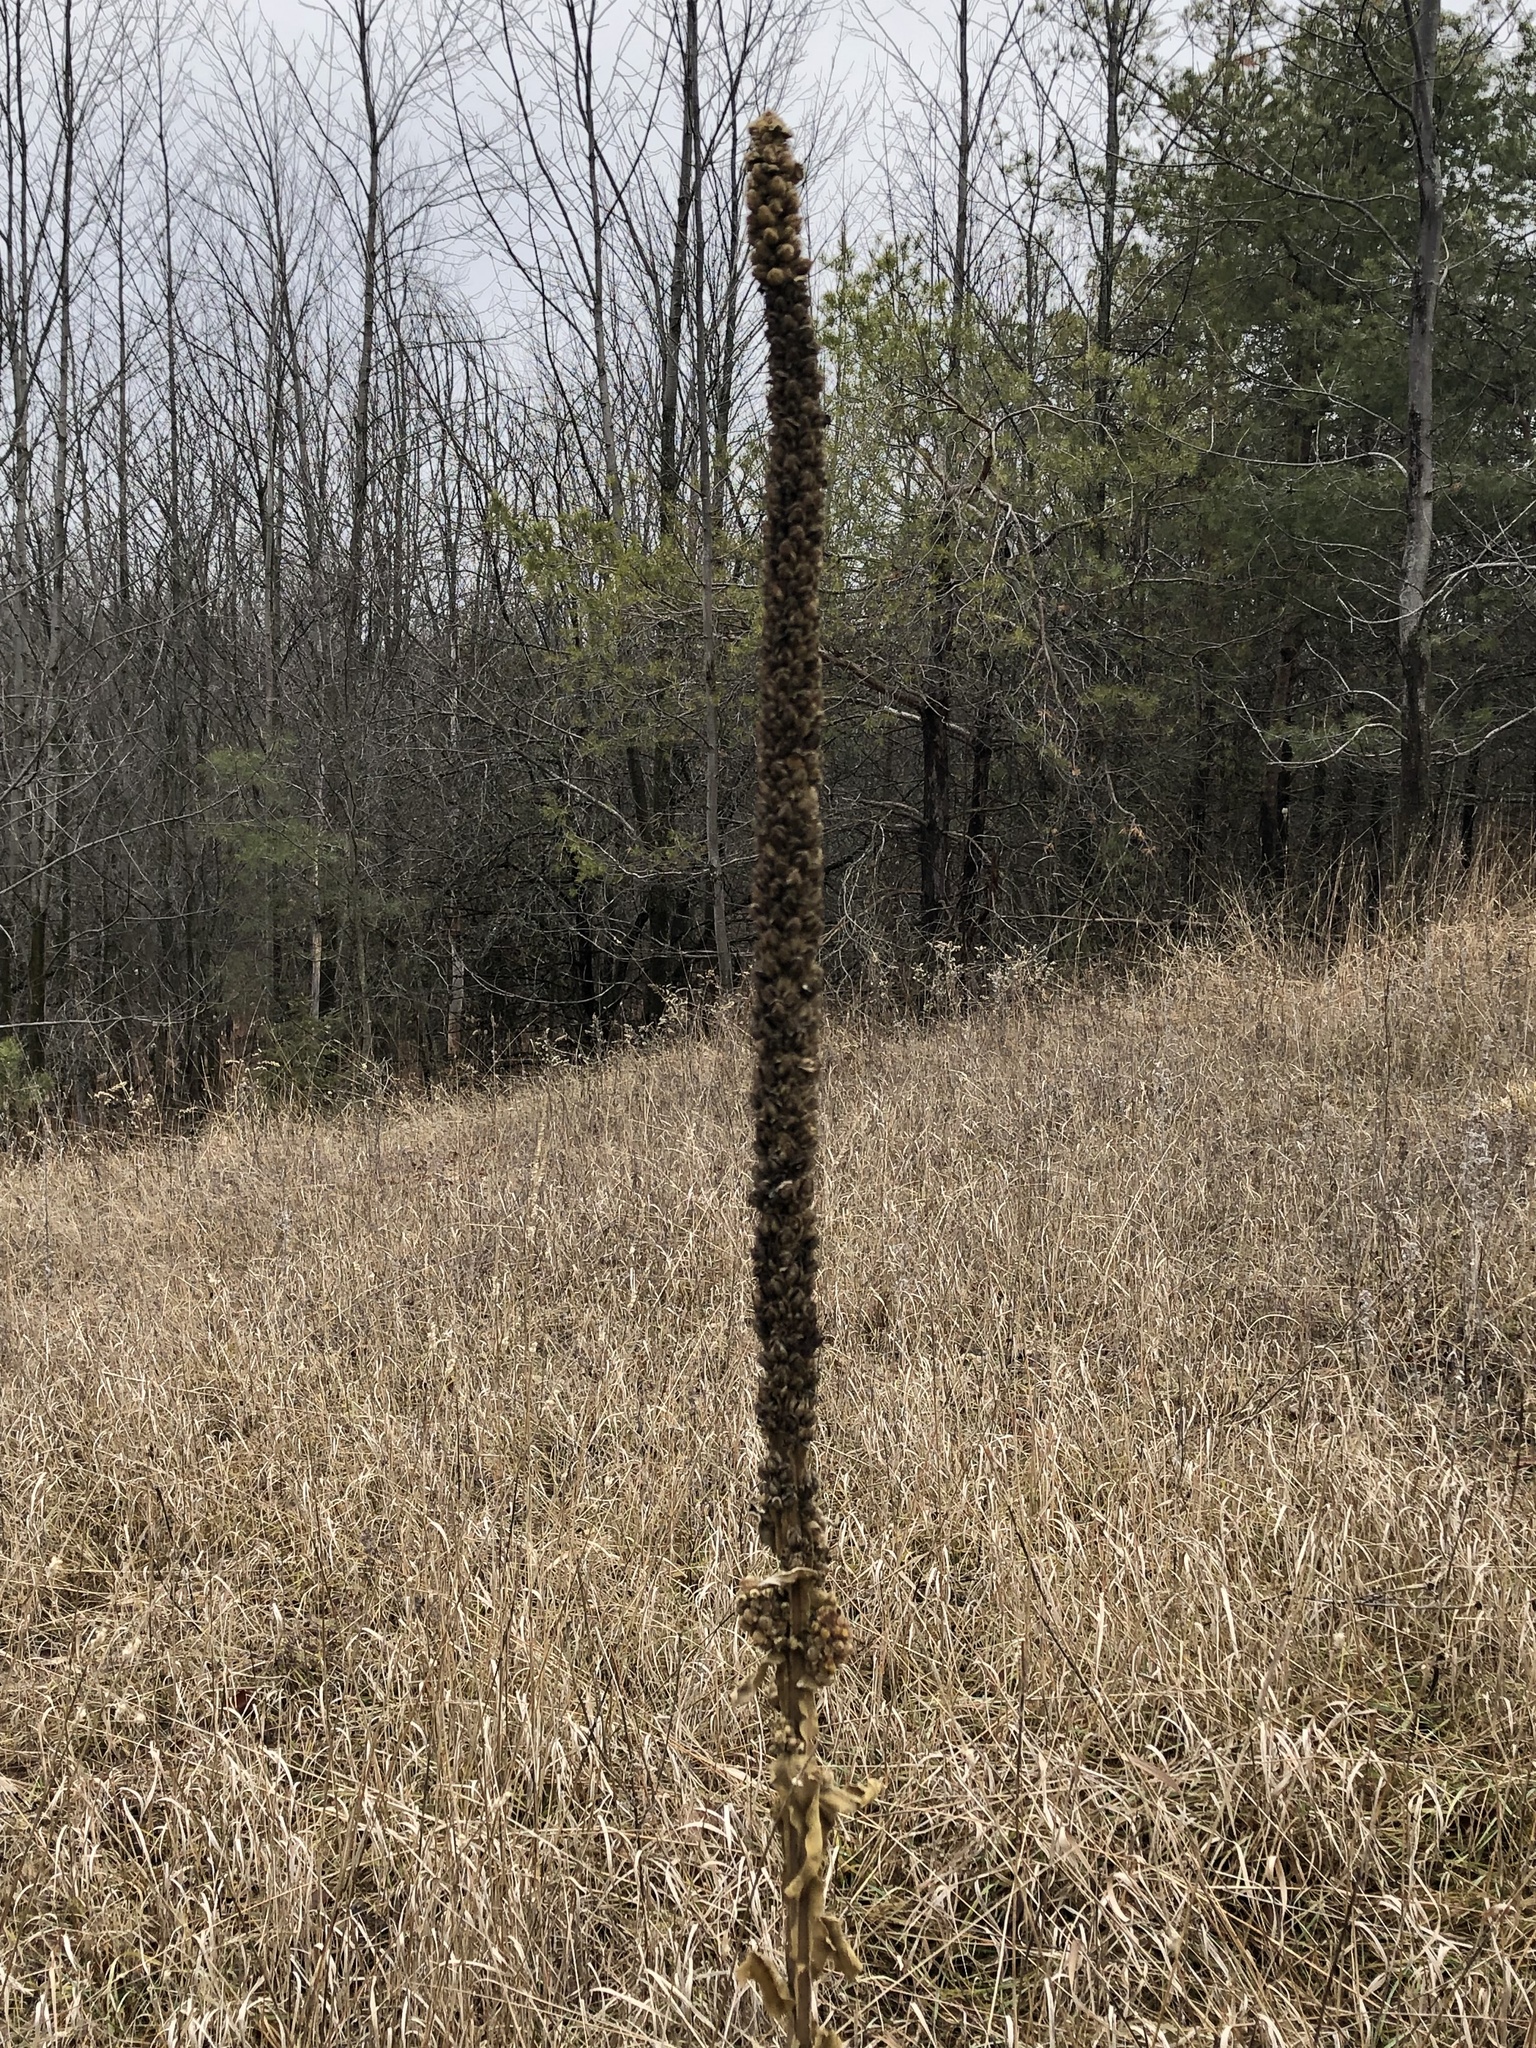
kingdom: Plantae
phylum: Tracheophyta
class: Magnoliopsida
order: Lamiales
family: Scrophulariaceae
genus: Verbascum
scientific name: Verbascum thapsus
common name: Common mullein
